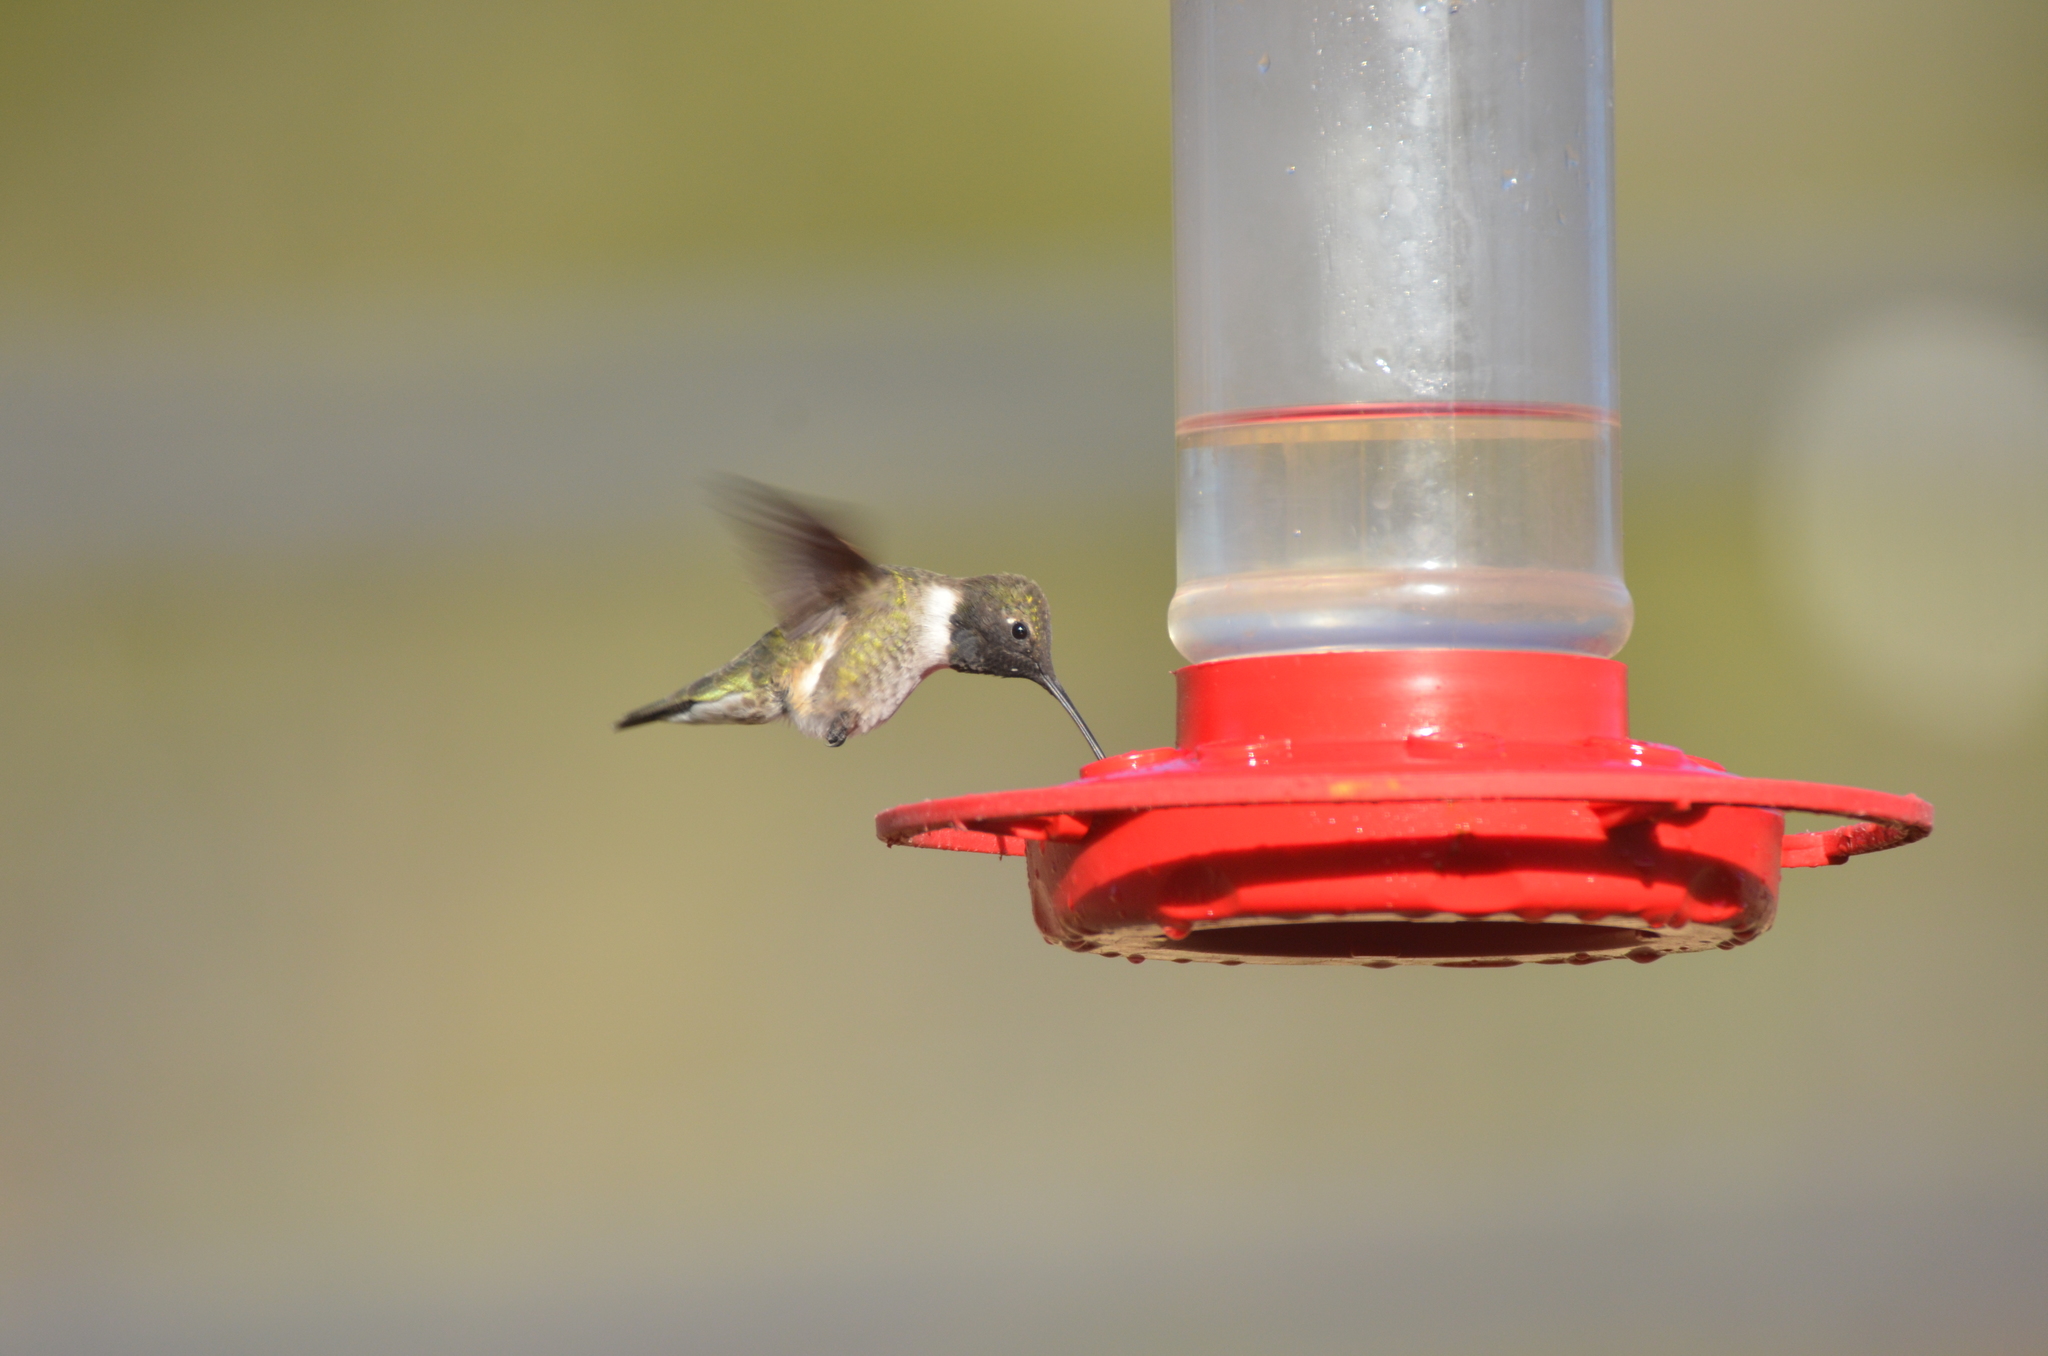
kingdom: Animalia
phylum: Chordata
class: Aves
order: Apodiformes
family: Trochilidae
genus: Archilochus
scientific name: Archilochus alexandri
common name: Black-chinned hummingbird
